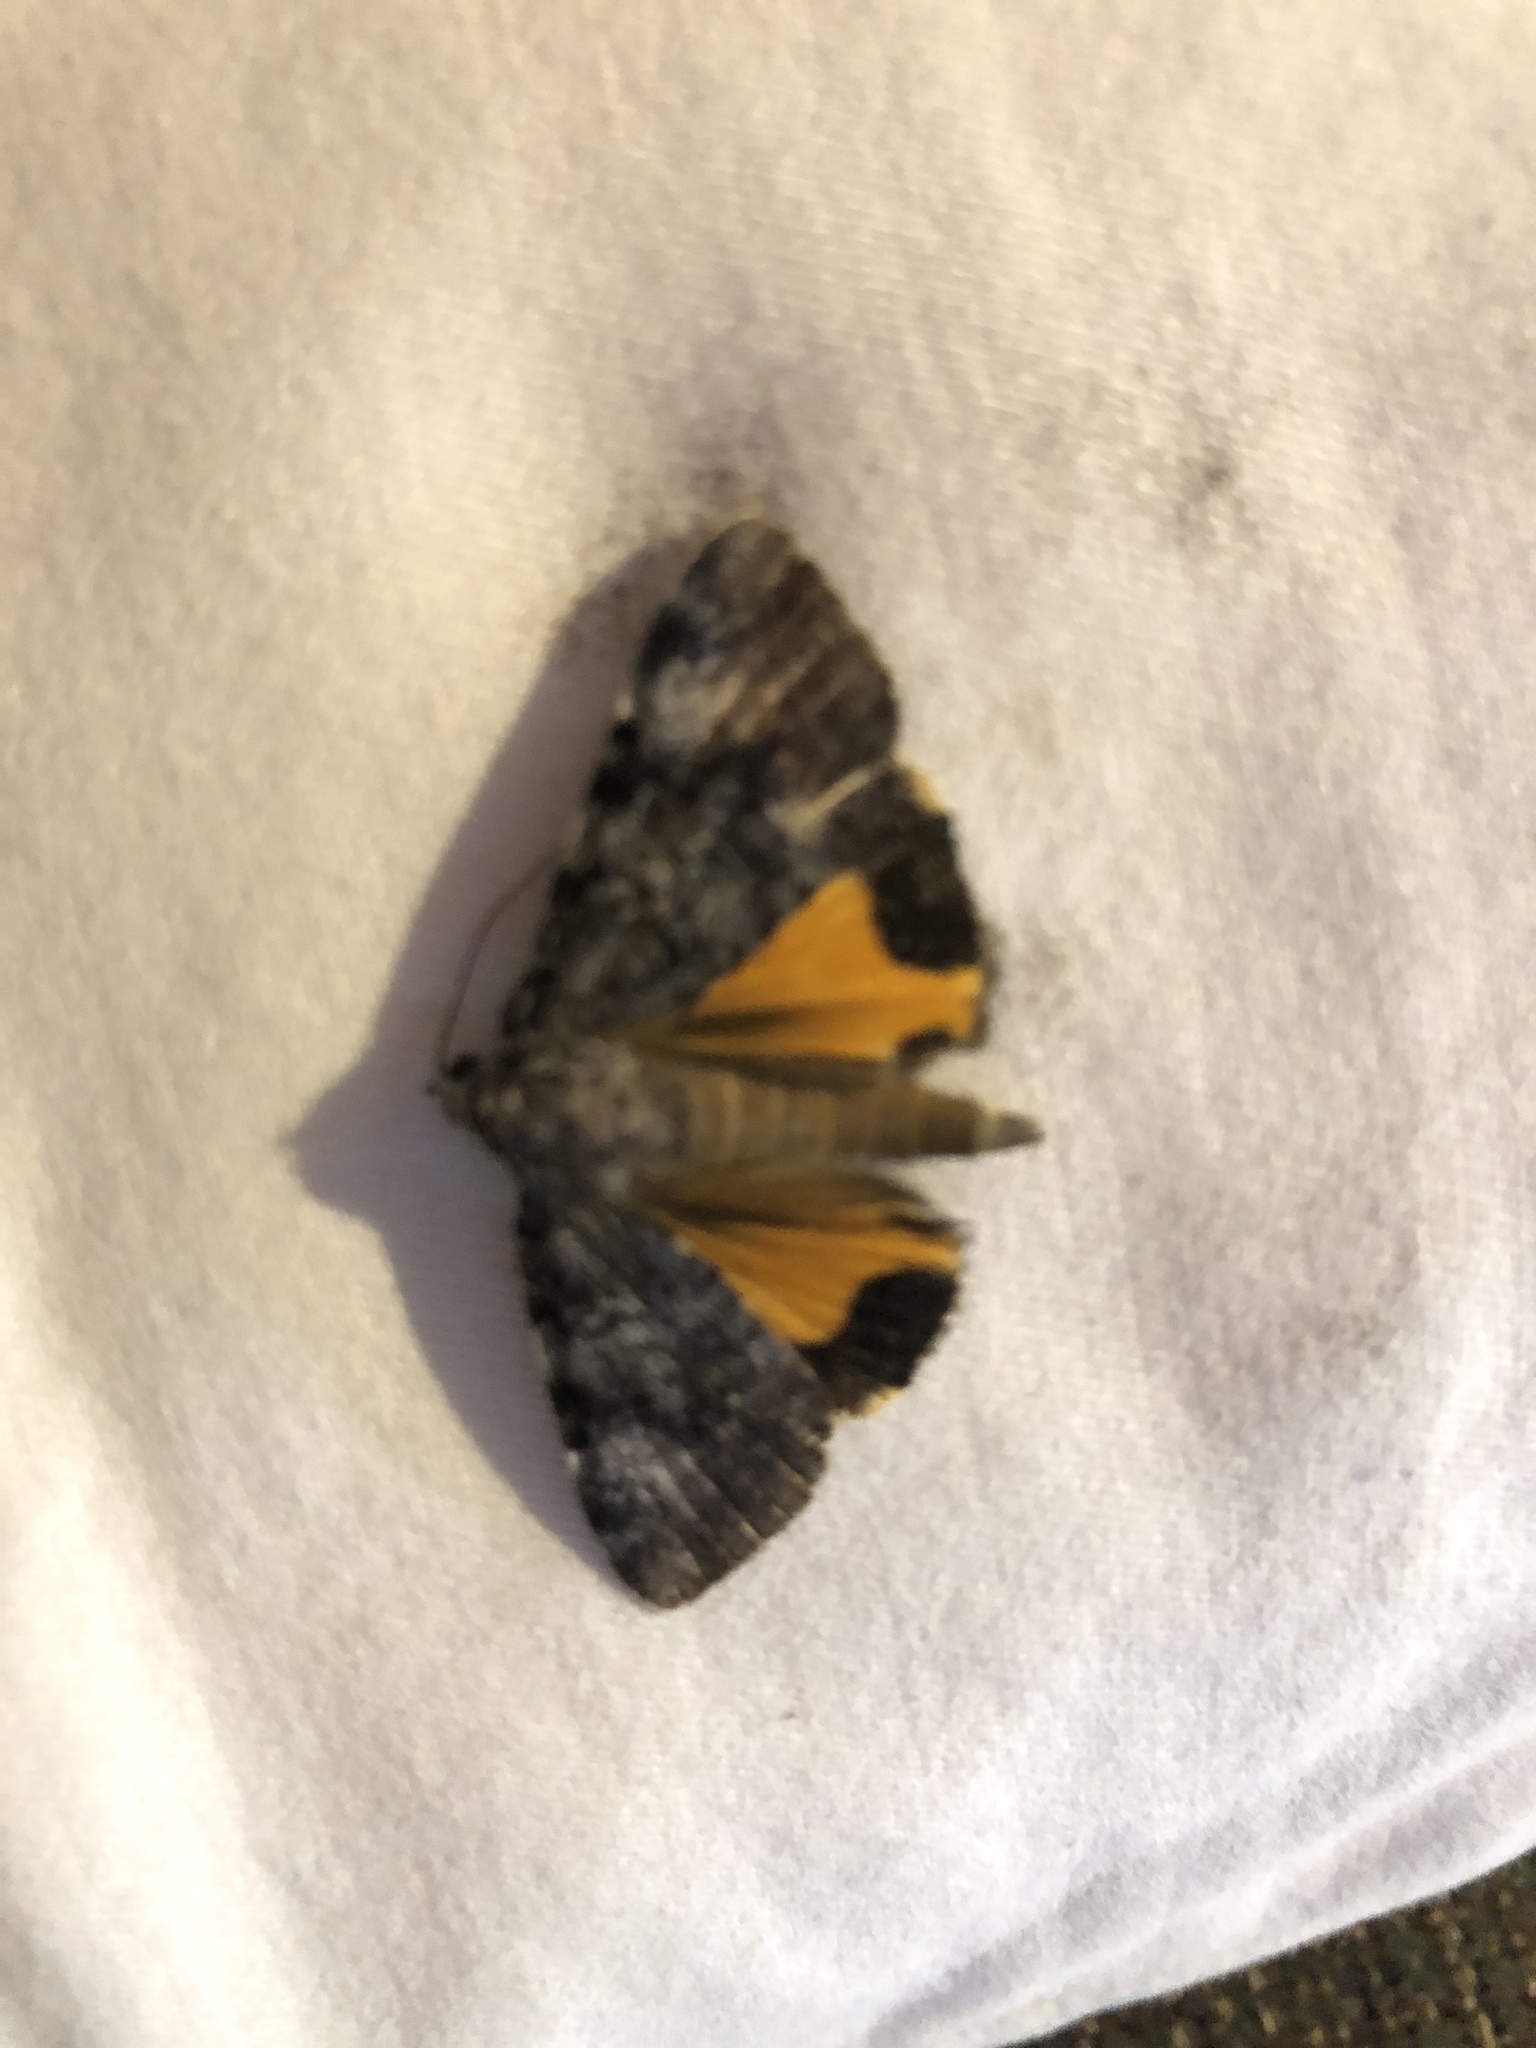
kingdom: Animalia
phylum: Arthropoda
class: Insecta
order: Lepidoptera
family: Erebidae
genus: Catocala
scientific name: Catocala lineella
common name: Little lined underwing
